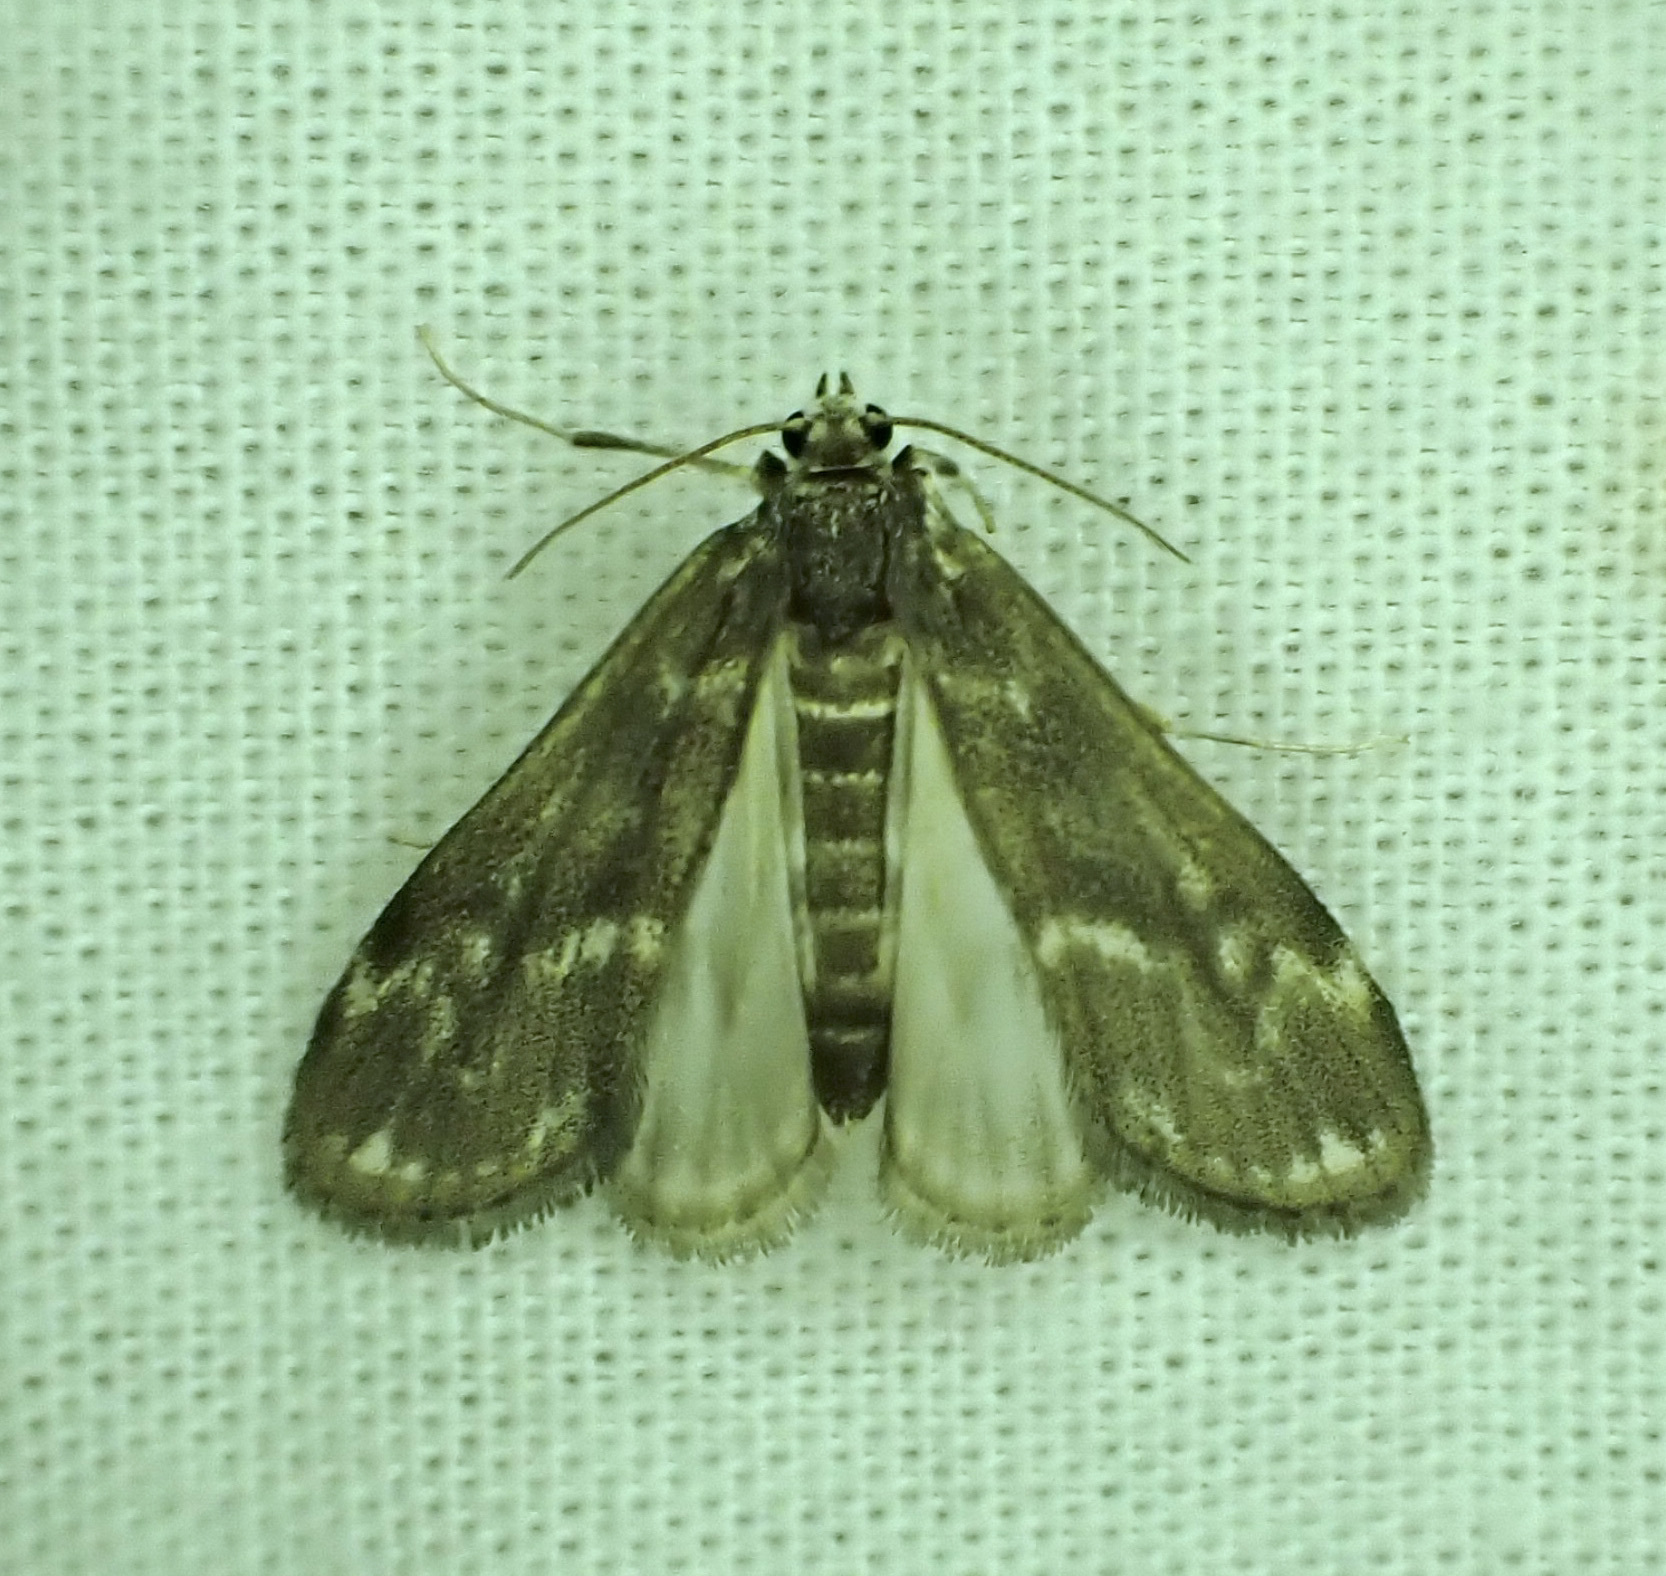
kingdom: Animalia
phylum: Arthropoda
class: Insecta
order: Lepidoptera
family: Crambidae
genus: Hygraula
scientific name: Hygraula nitens
